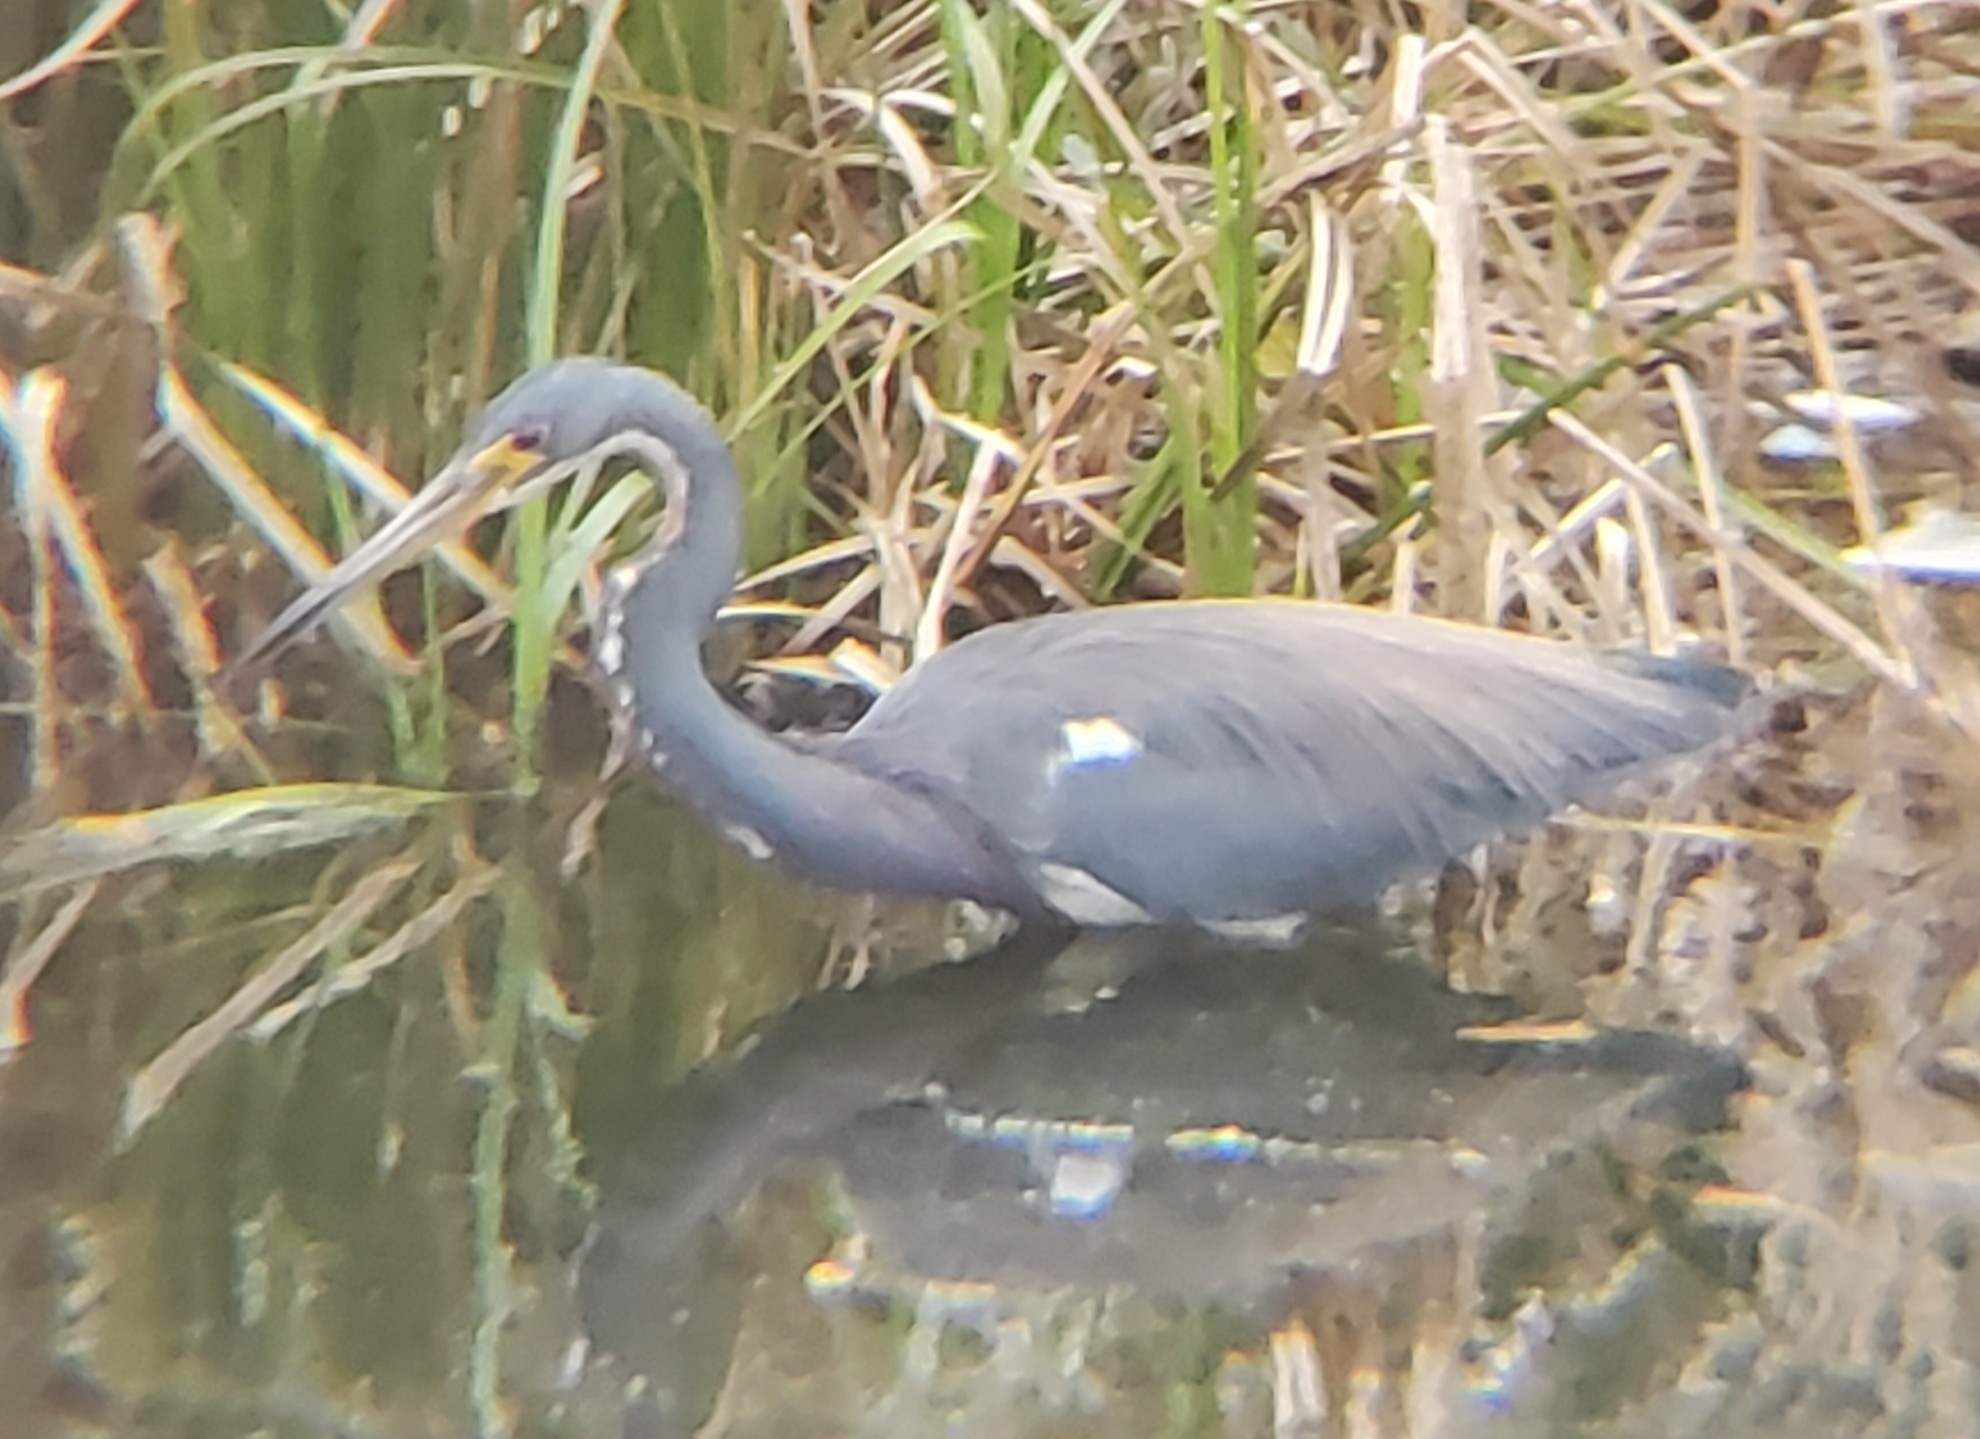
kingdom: Animalia
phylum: Chordata
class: Aves
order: Pelecaniformes
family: Ardeidae
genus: Egretta
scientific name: Egretta tricolor
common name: Tricolored heron
